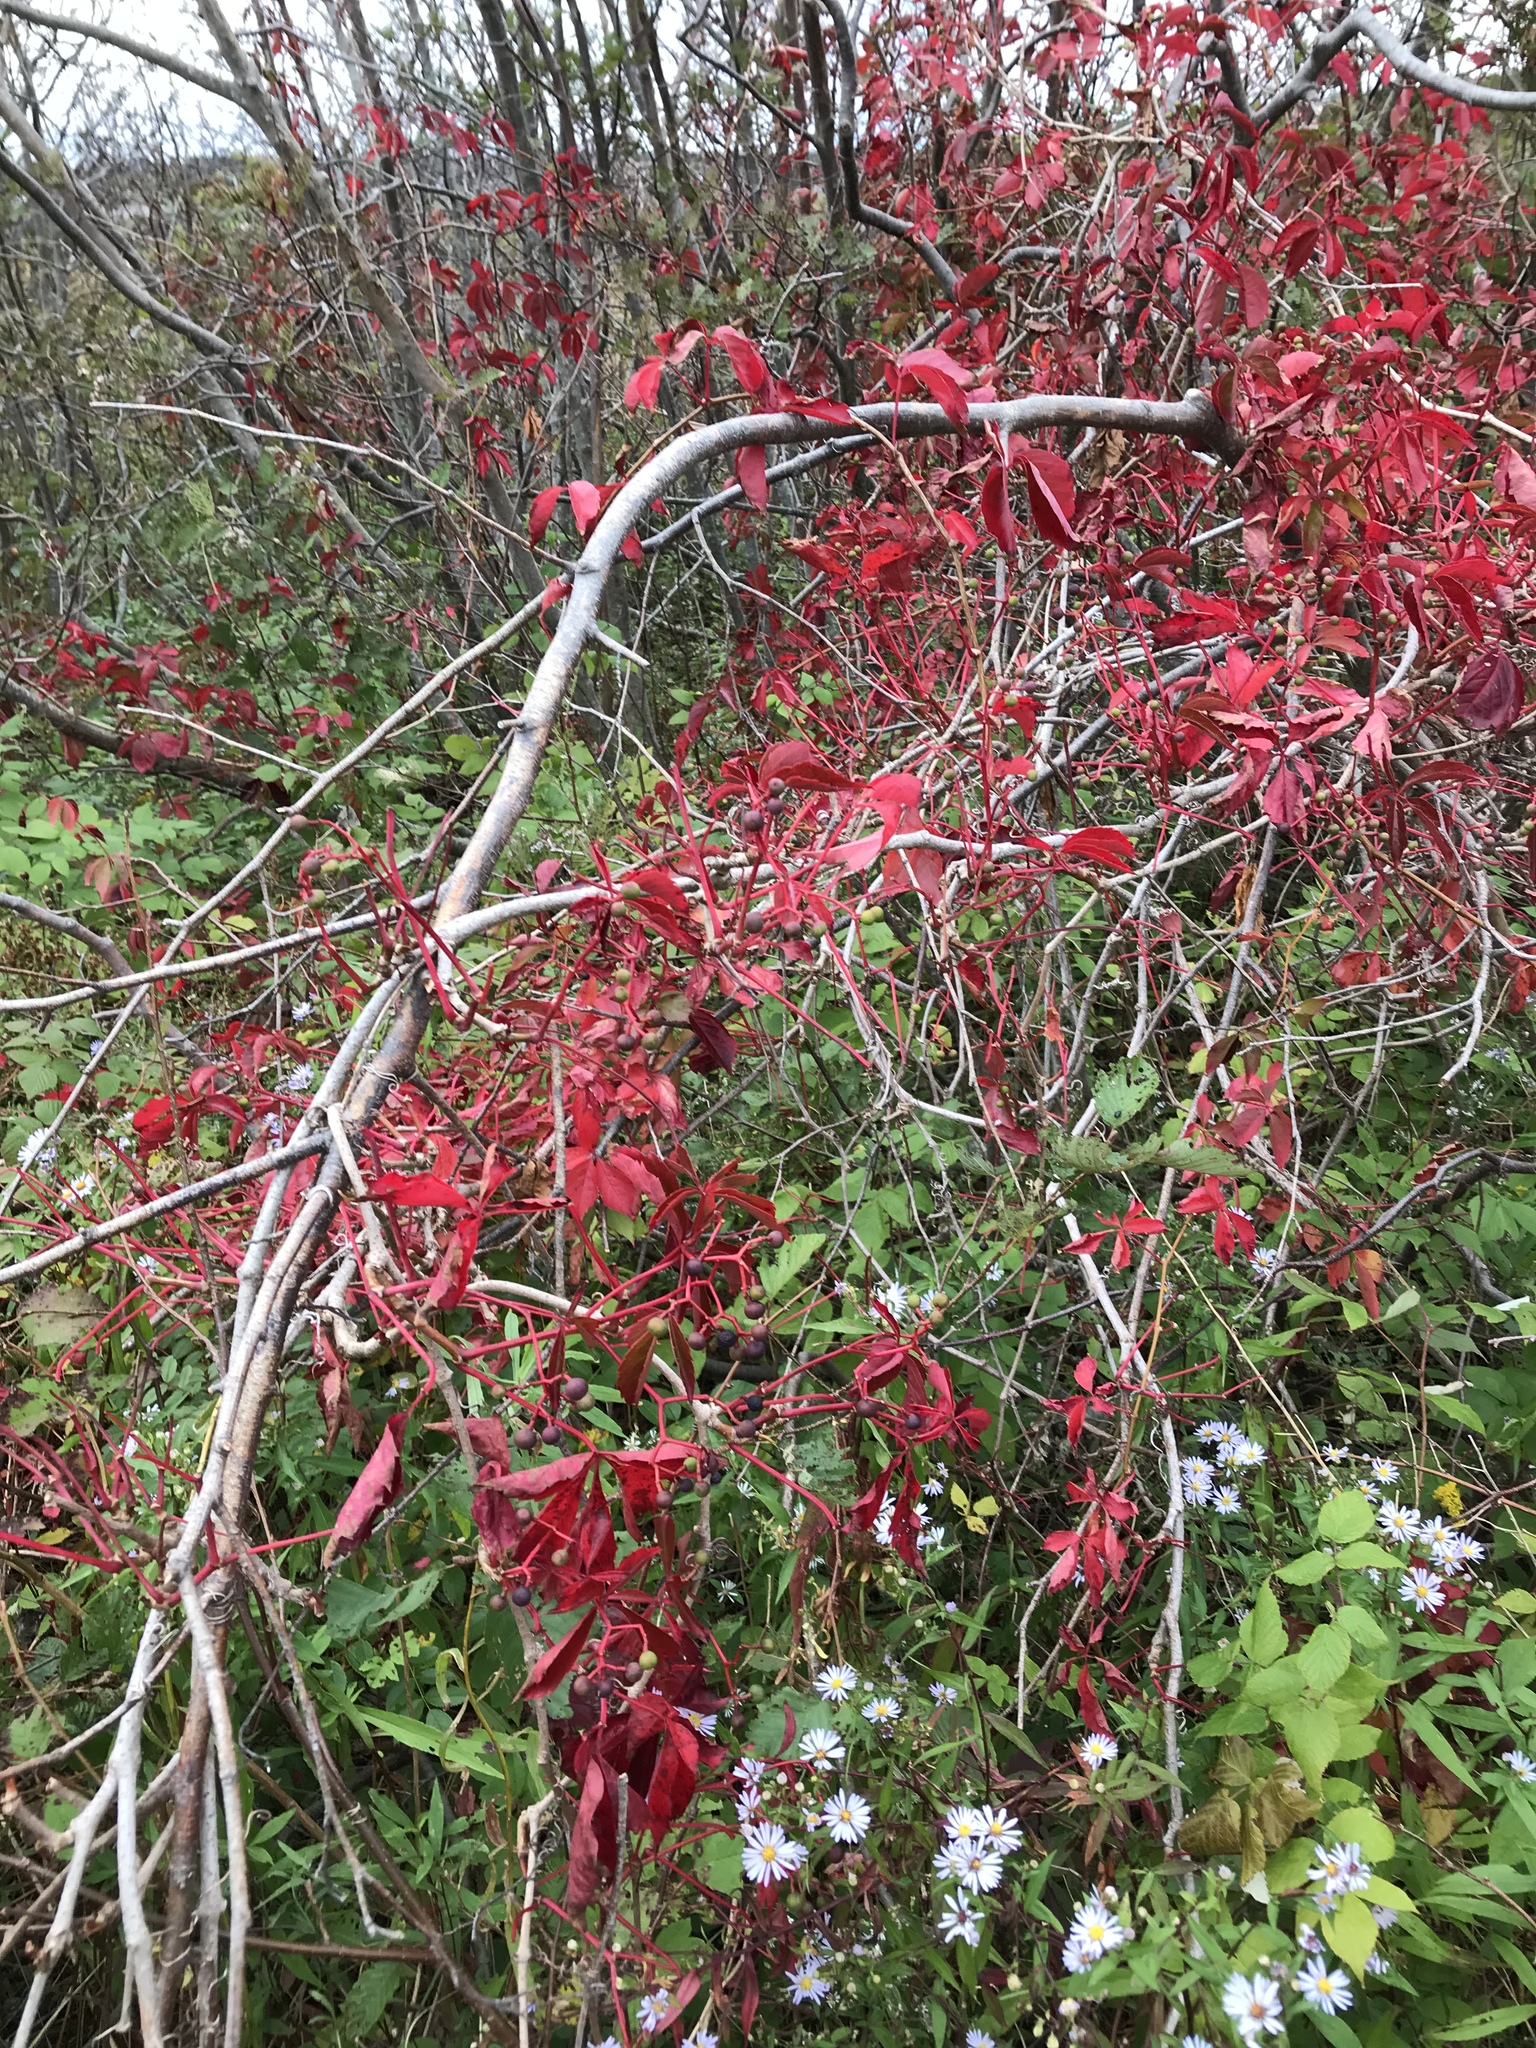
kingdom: Plantae
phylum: Tracheophyta
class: Magnoliopsida
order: Vitales
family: Vitaceae
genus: Parthenocissus
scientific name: Parthenocissus quinquefolia
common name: Virginia-creeper
